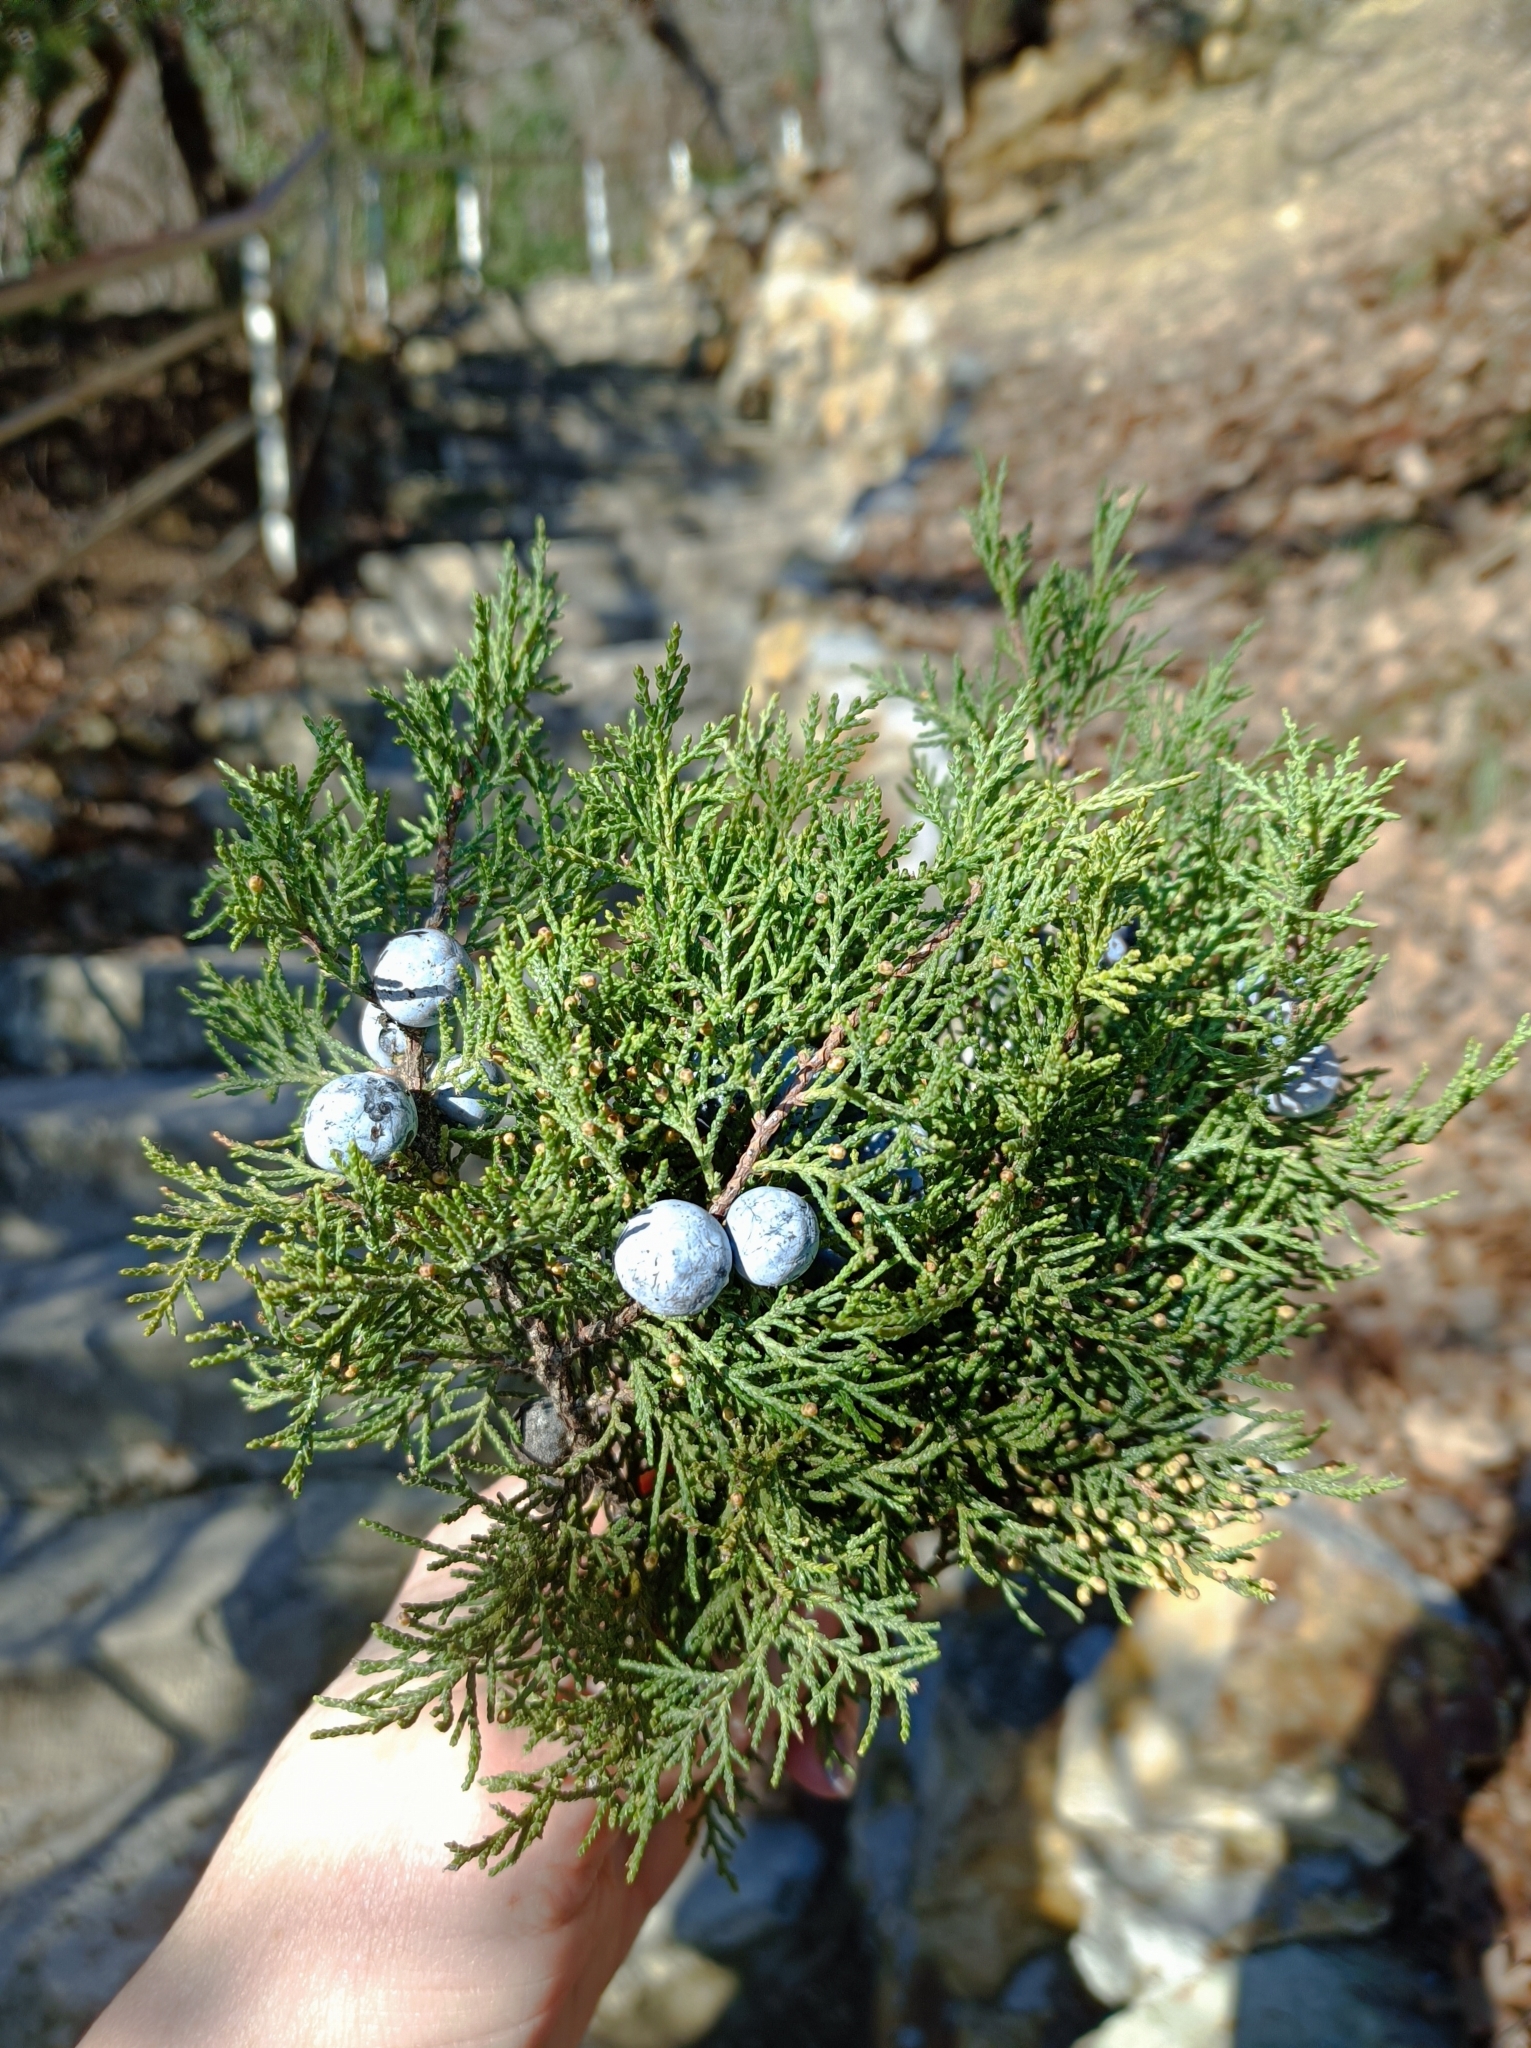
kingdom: Plantae
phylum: Tracheophyta
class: Pinopsida
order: Pinales
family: Cupressaceae
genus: Juniperus
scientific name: Juniperus excelsa
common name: Crimean juniper
